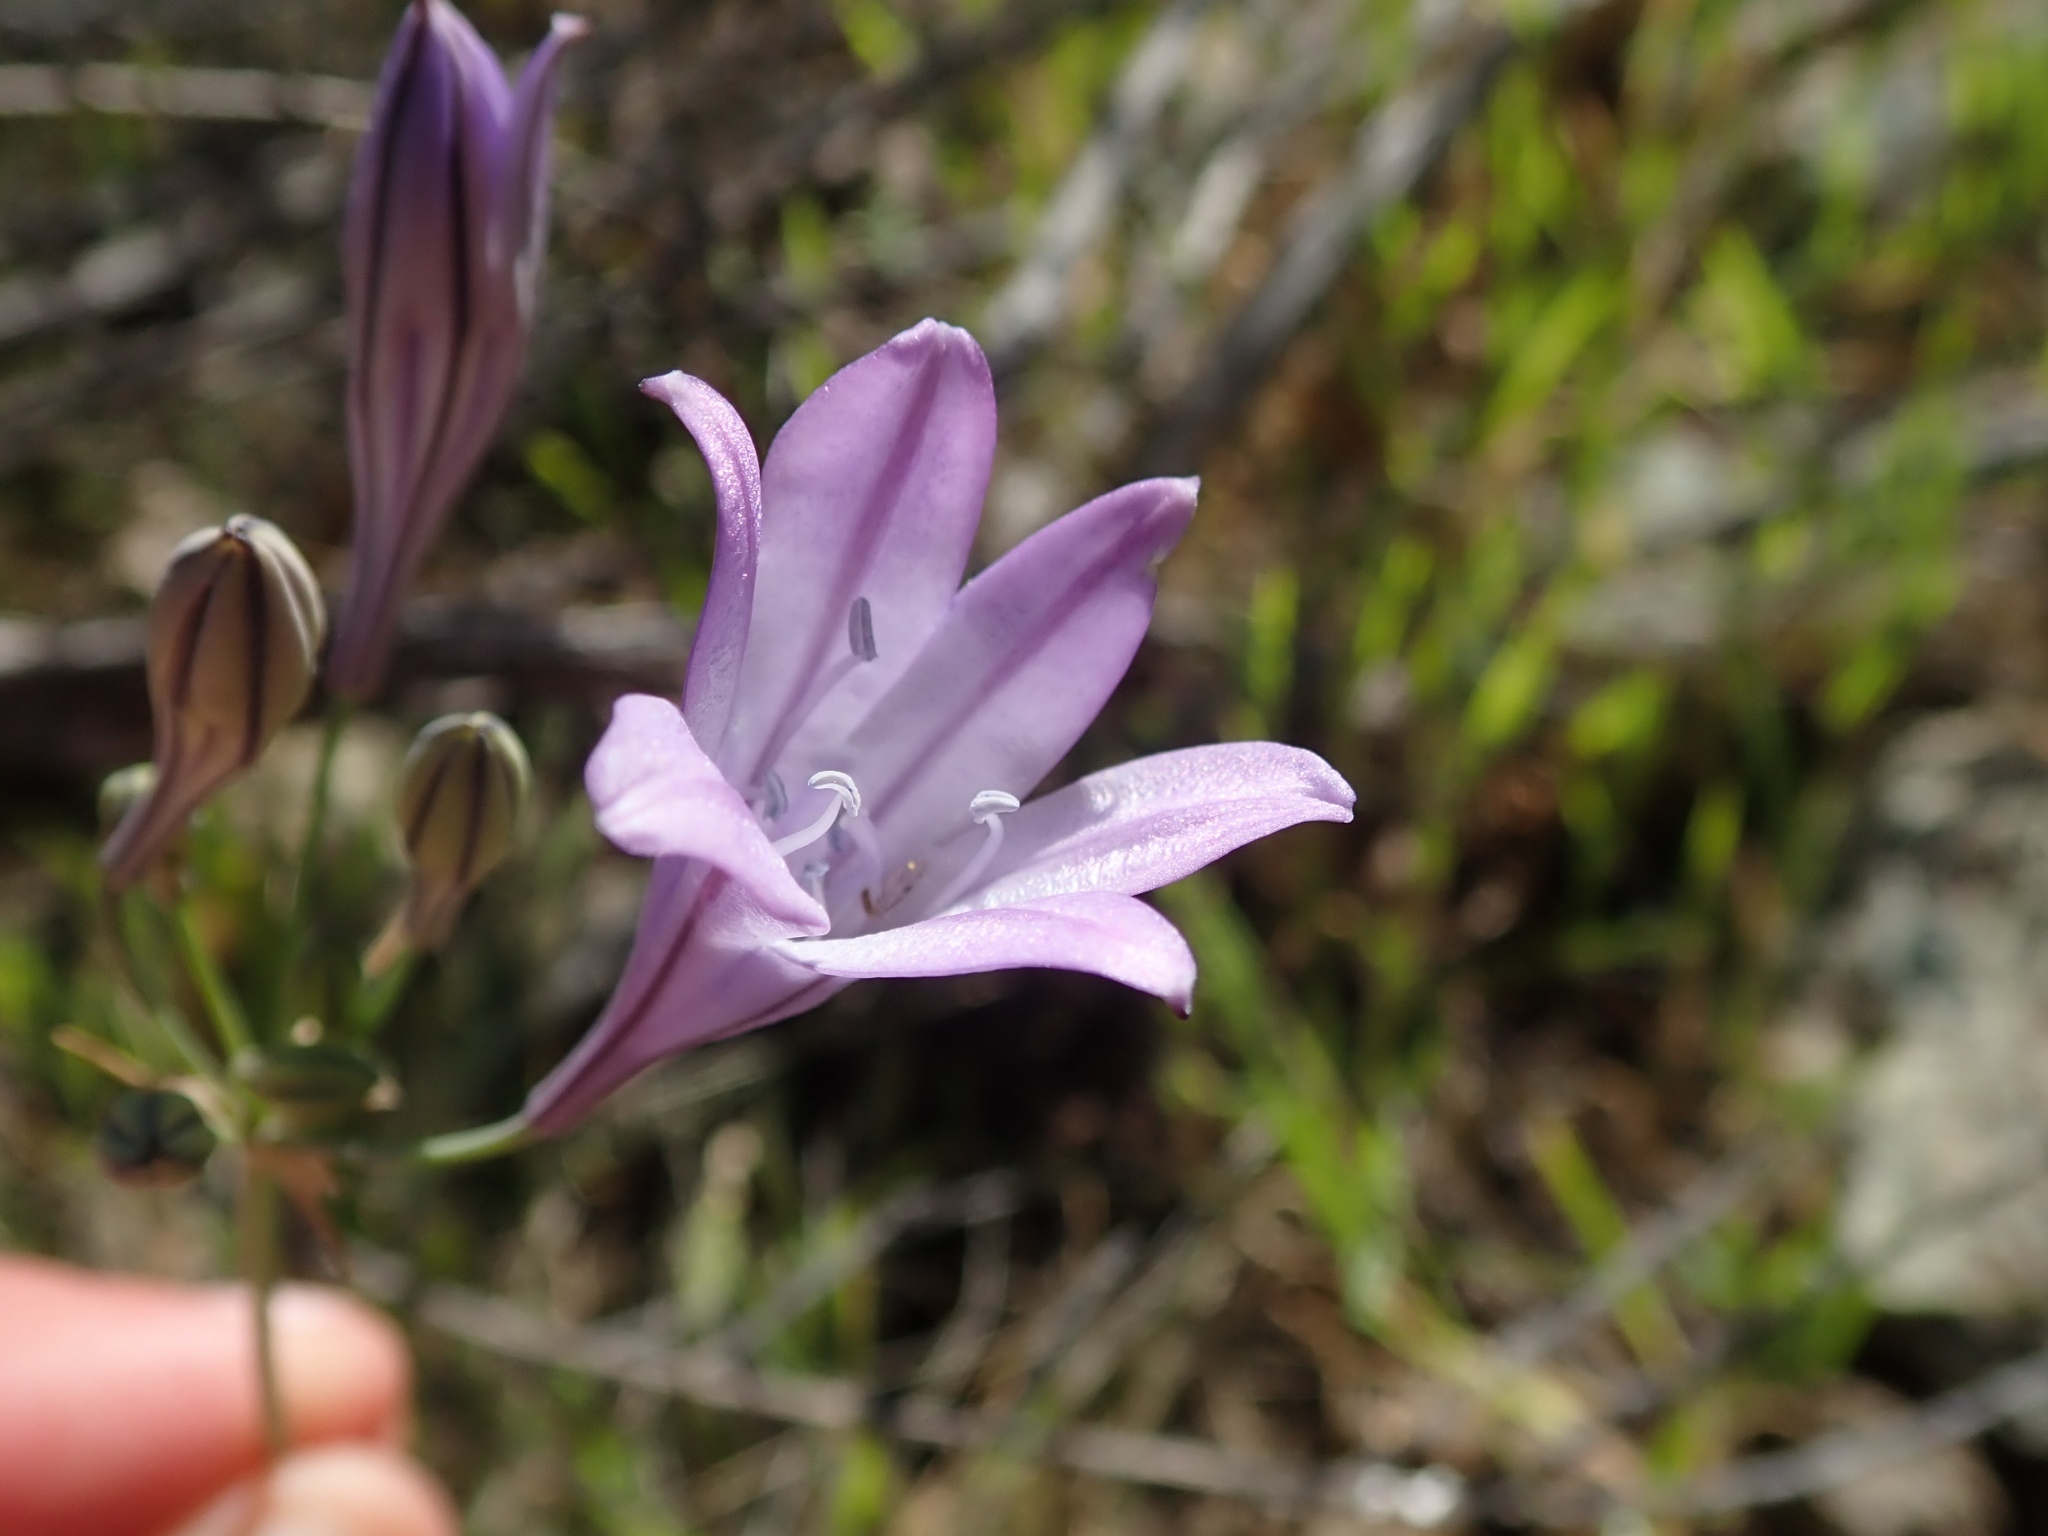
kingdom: Plantae
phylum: Tracheophyta
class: Liliopsida
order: Asparagales
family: Asparagaceae
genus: Triteleia
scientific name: Triteleia laxa
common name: Triplet-lily
